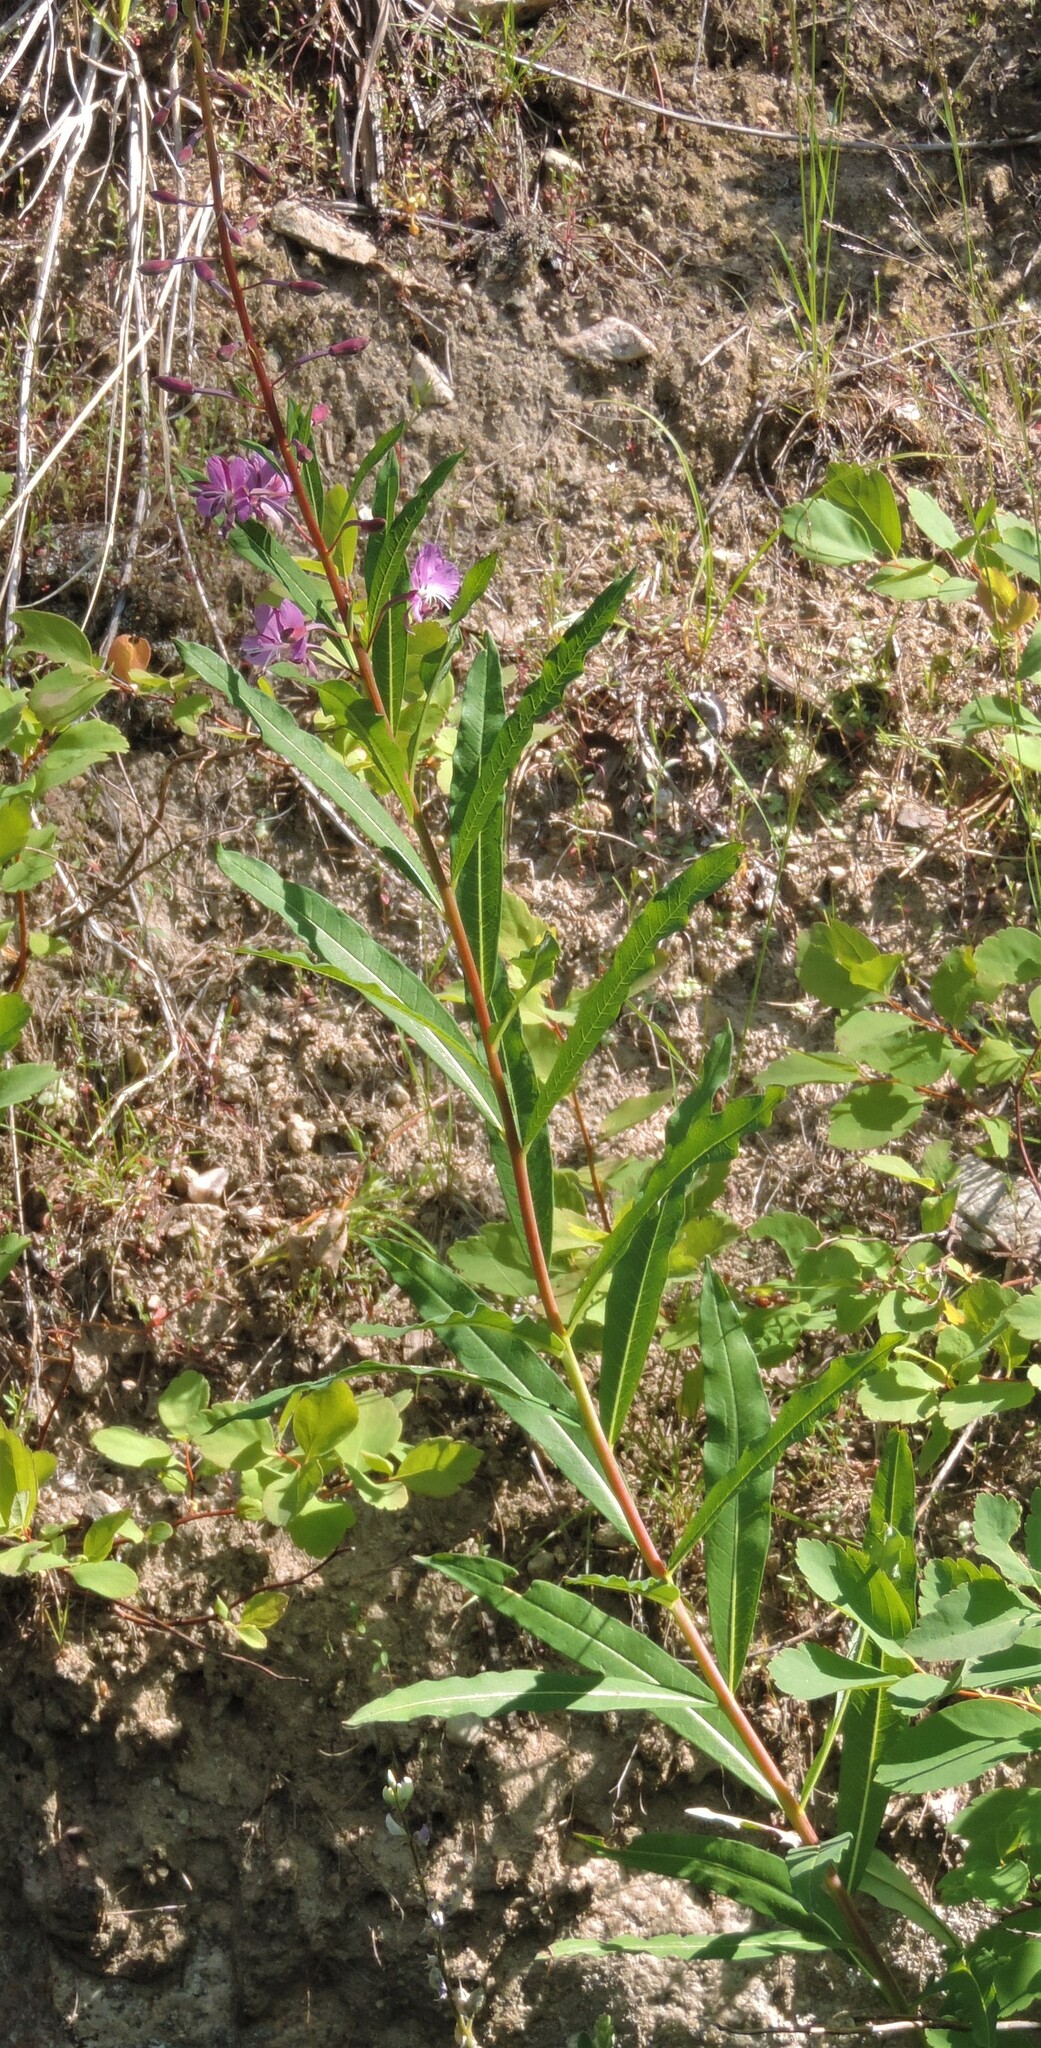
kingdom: Plantae
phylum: Tracheophyta
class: Magnoliopsida
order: Myrtales
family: Onagraceae
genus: Chamaenerion
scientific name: Chamaenerion angustifolium
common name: Fireweed
